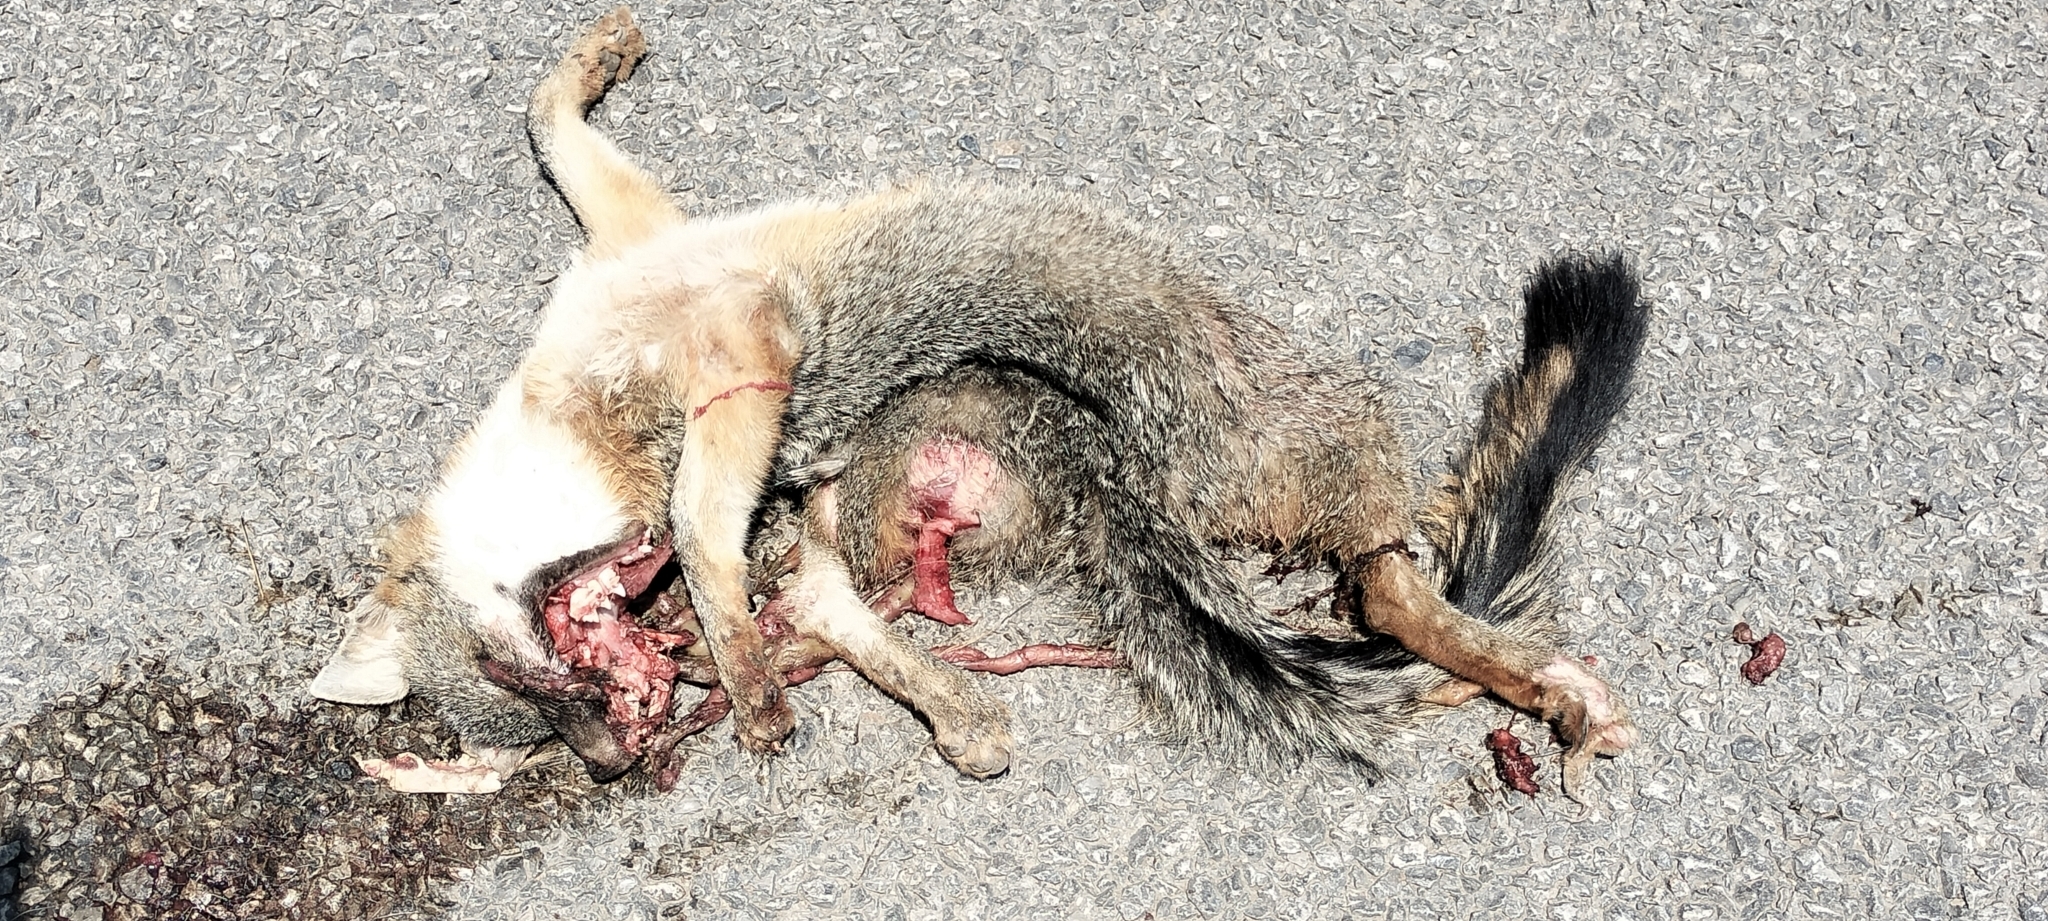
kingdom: Animalia
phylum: Chordata
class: Mammalia
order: Carnivora
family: Canidae
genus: Urocyon
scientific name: Urocyon cinereoargenteus
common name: Gray fox
